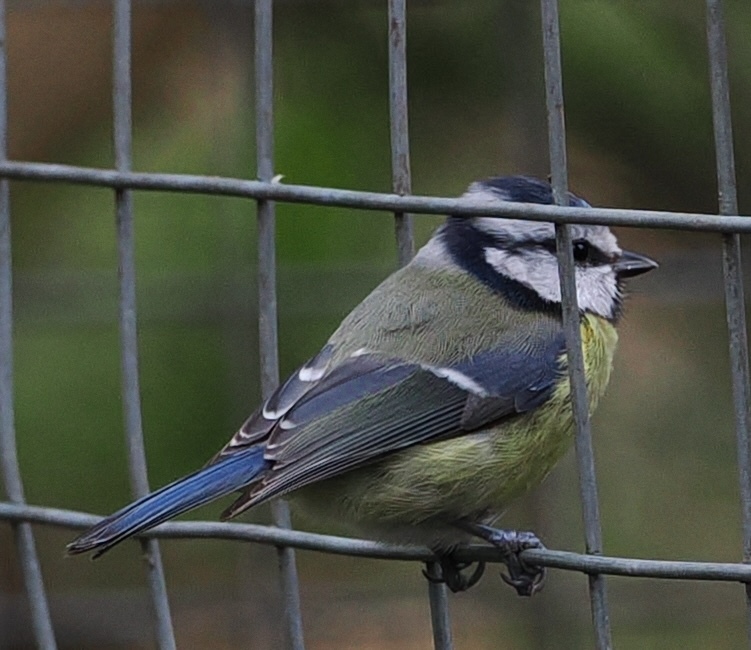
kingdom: Animalia
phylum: Chordata
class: Aves
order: Passeriformes
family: Paridae
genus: Cyanistes
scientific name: Cyanistes caeruleus
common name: Eurasian blue tit
